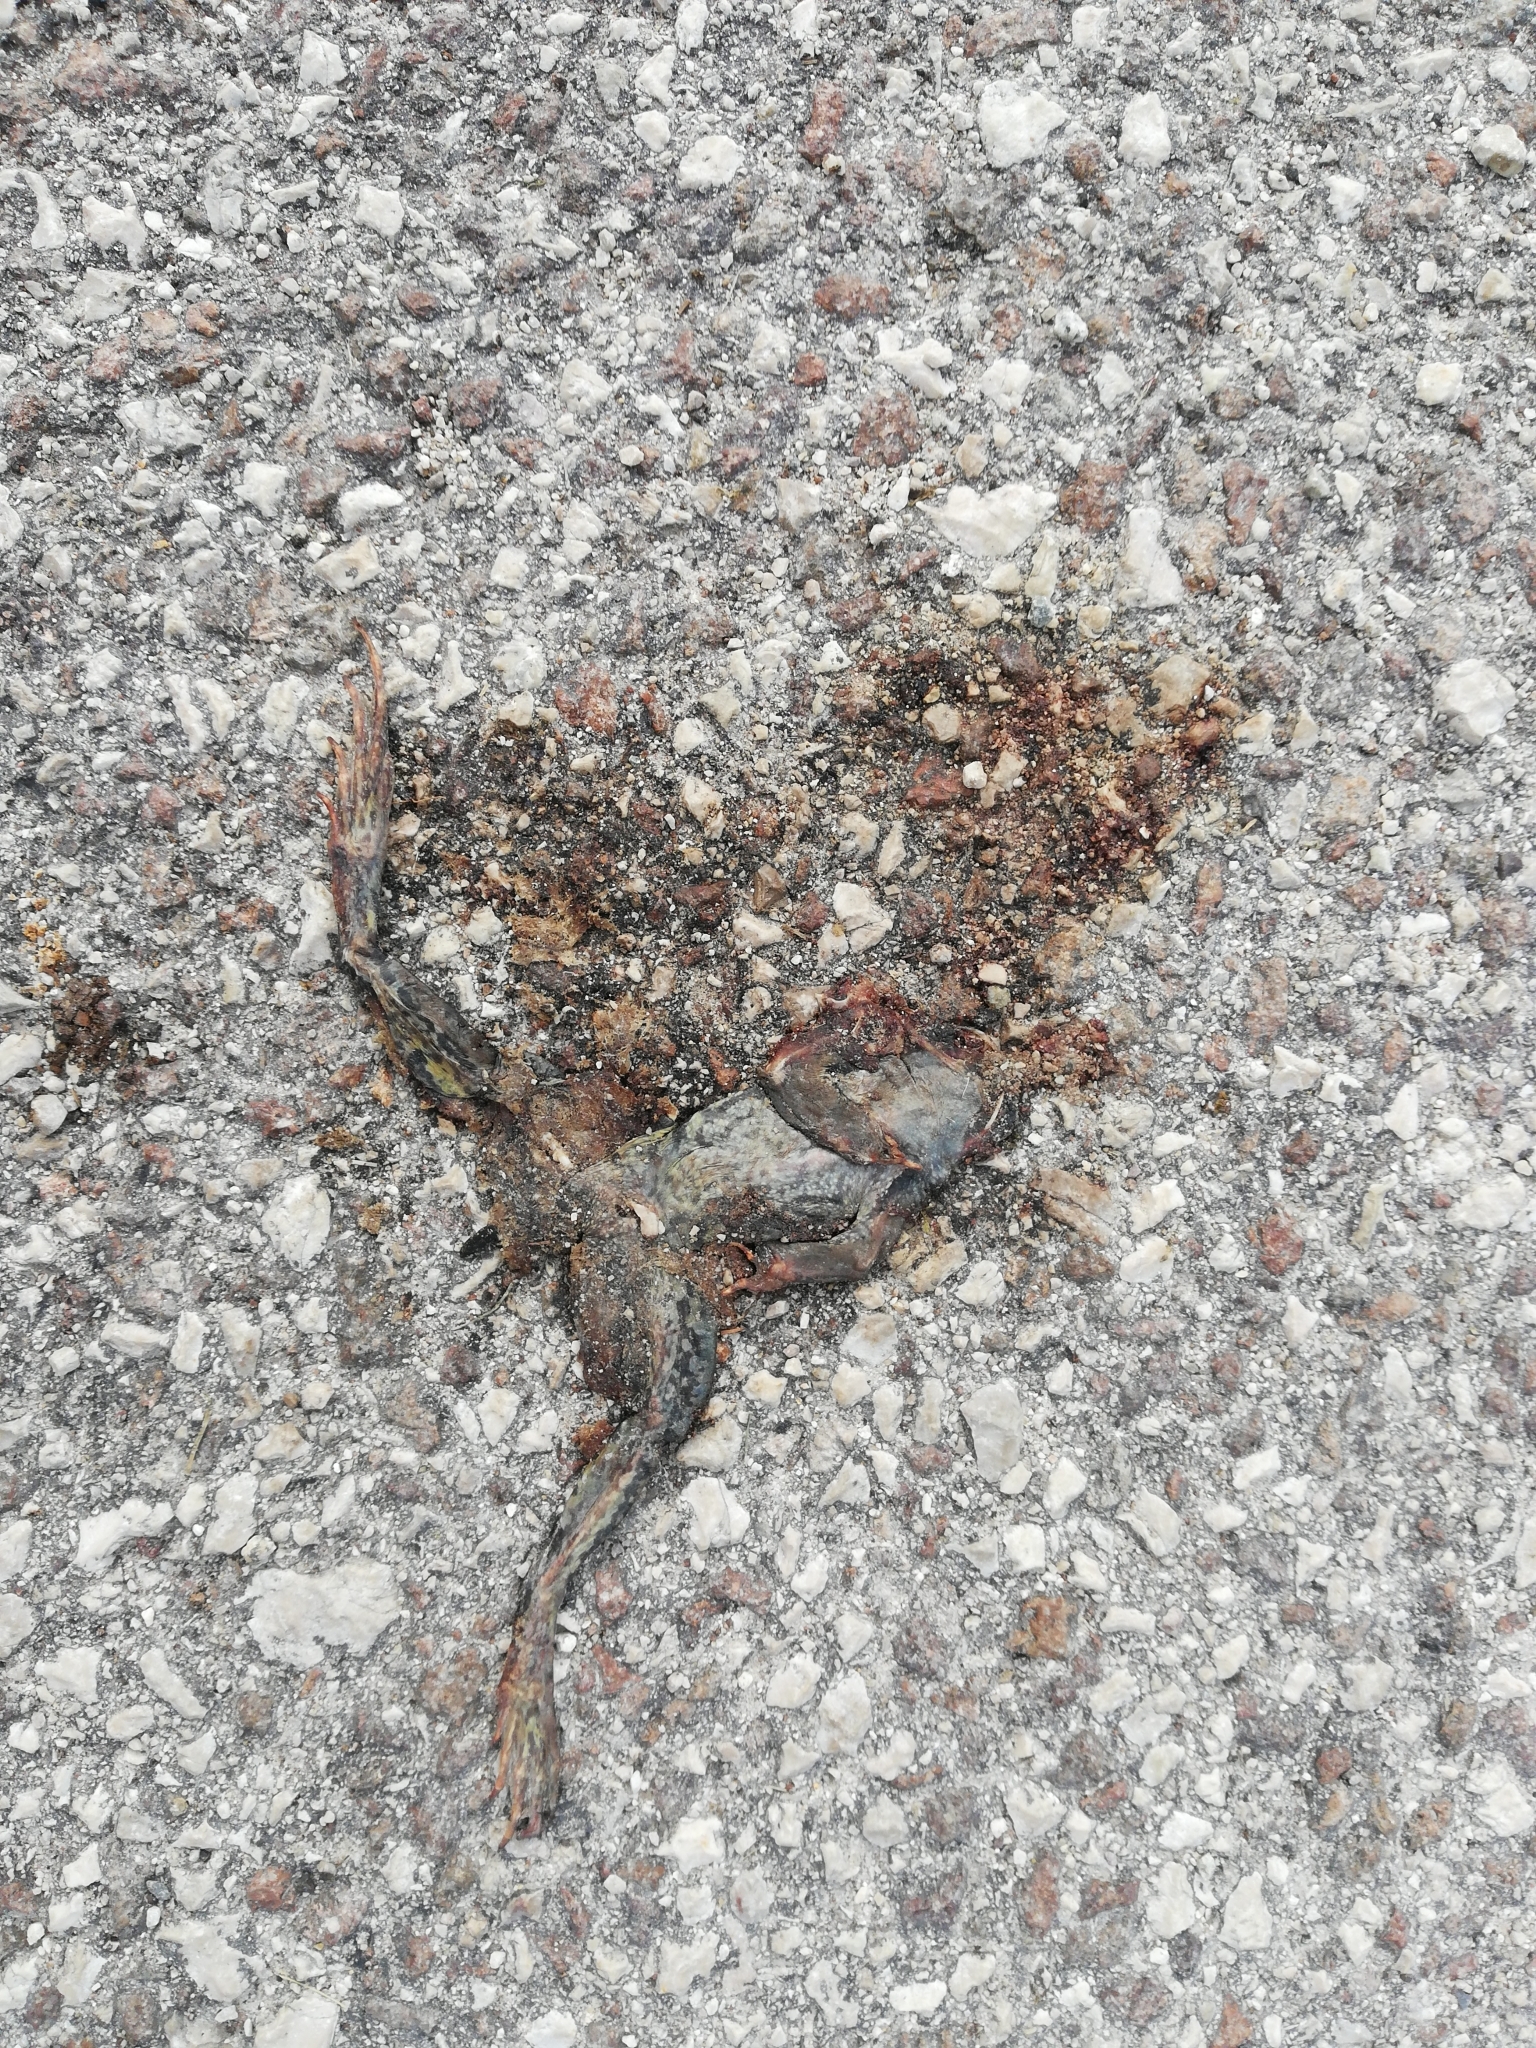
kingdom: Animalia
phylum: Chordata
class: Amphibia
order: Anura
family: Ranidae
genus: Rana
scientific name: Rana temporaria
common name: Common frog
